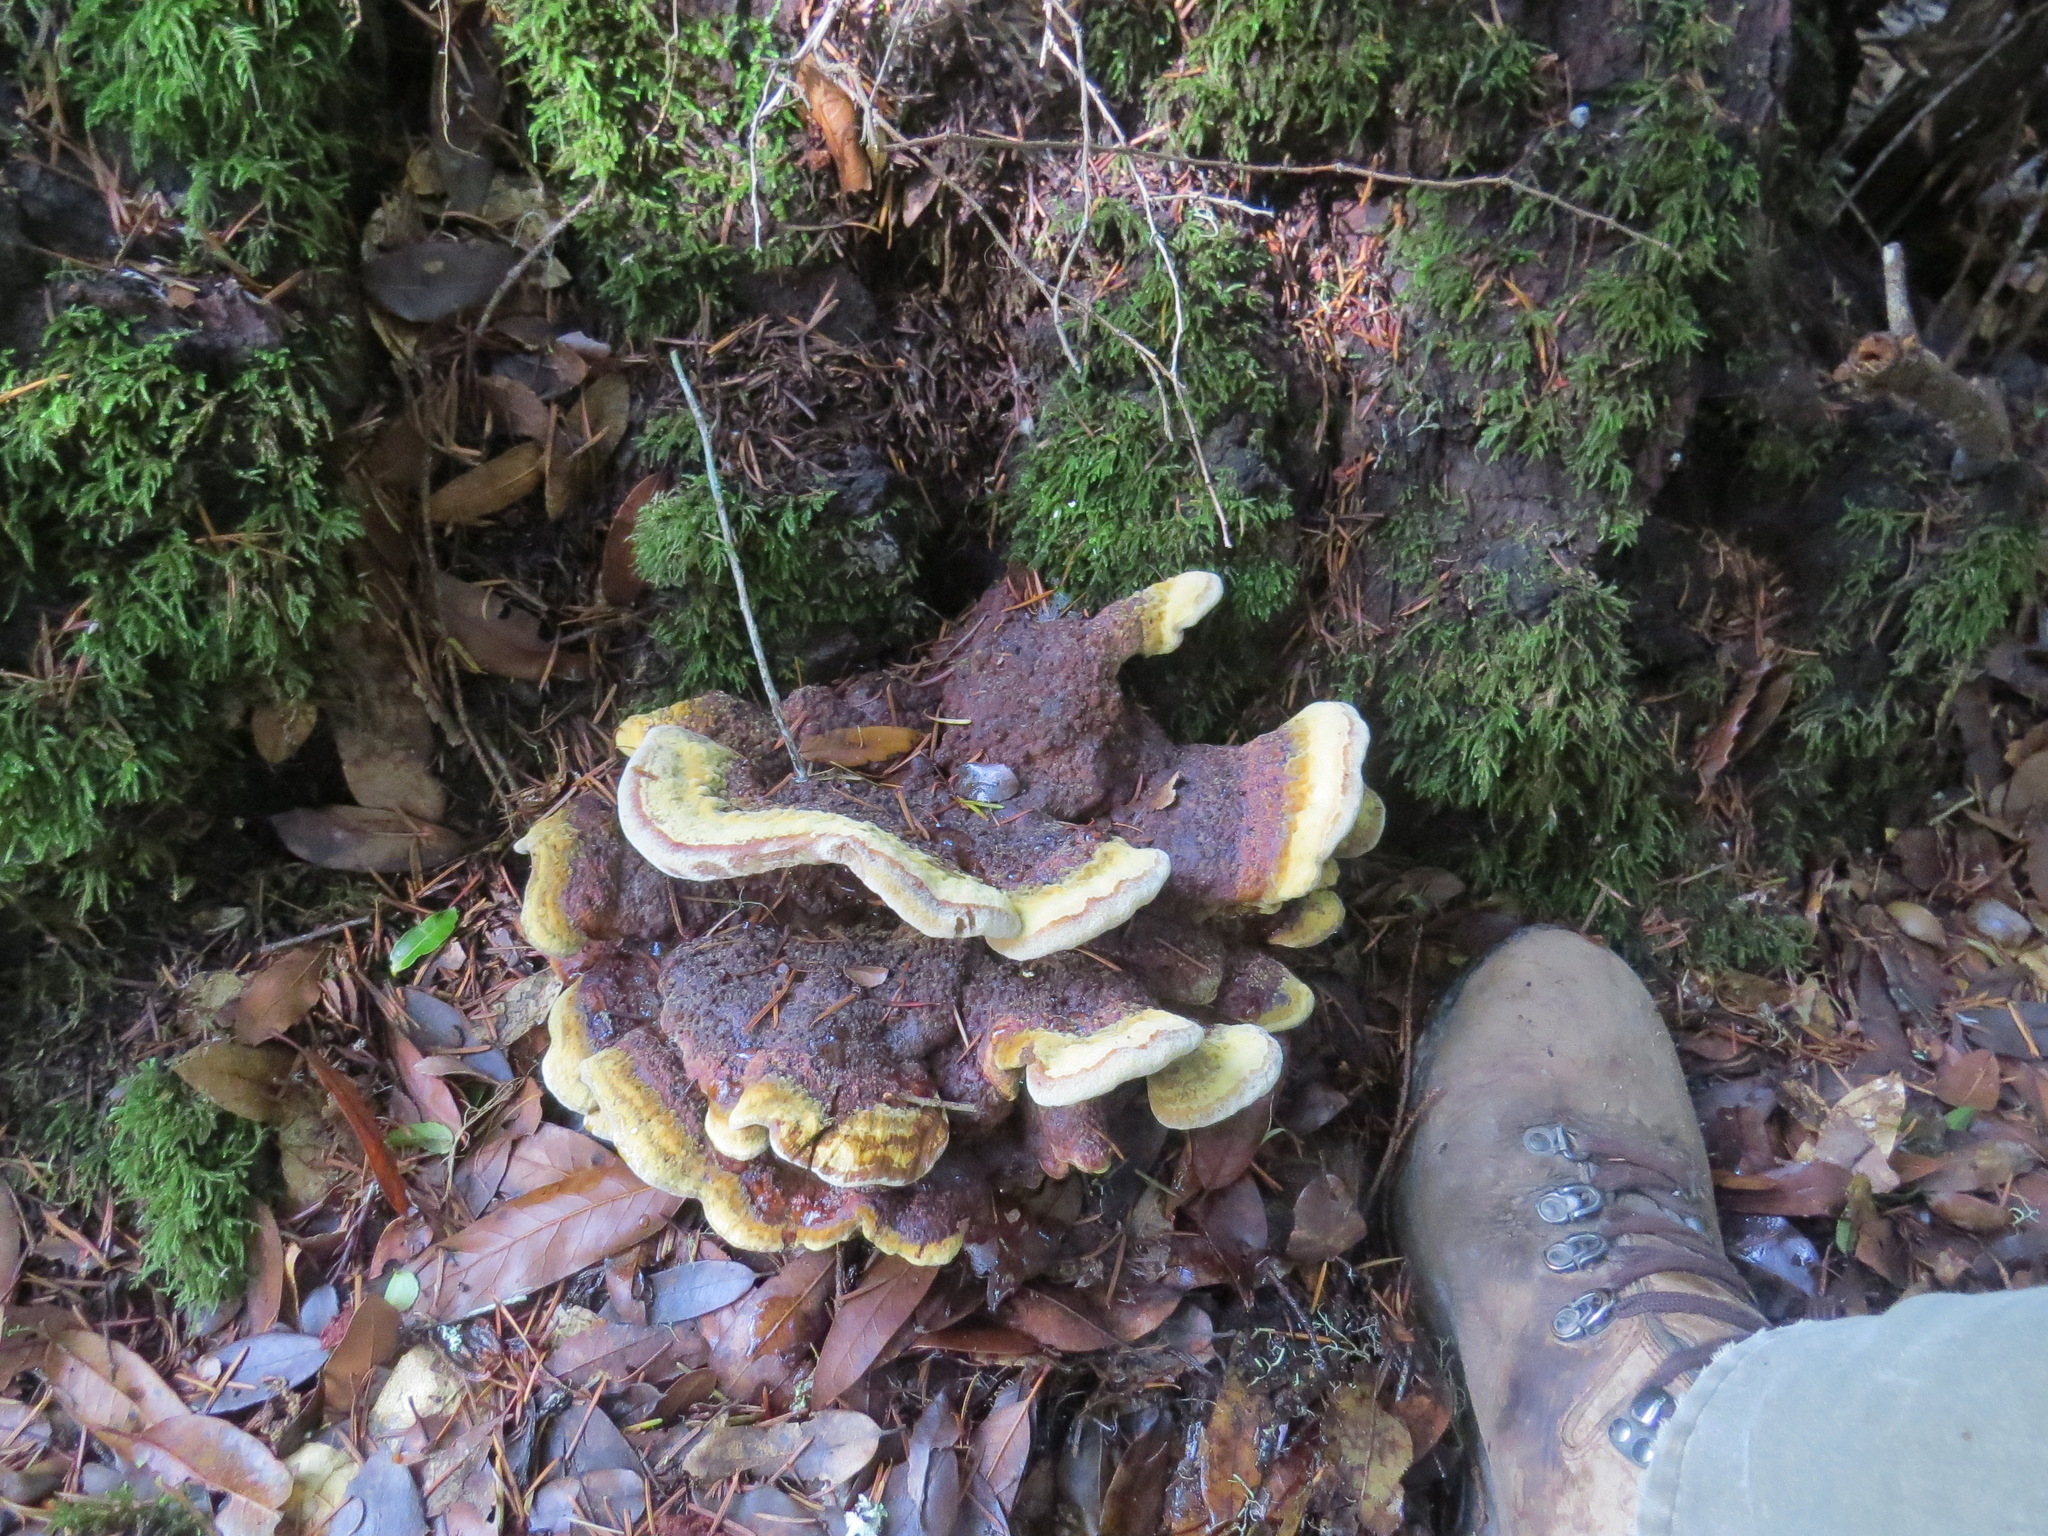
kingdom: Fungi
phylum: Basidiomycota
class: Agaricomycetes
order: Polyporales
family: Laetiporaceae
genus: Phaeolus
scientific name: Phaeolus schweinitzii
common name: Dyer's mazegill
